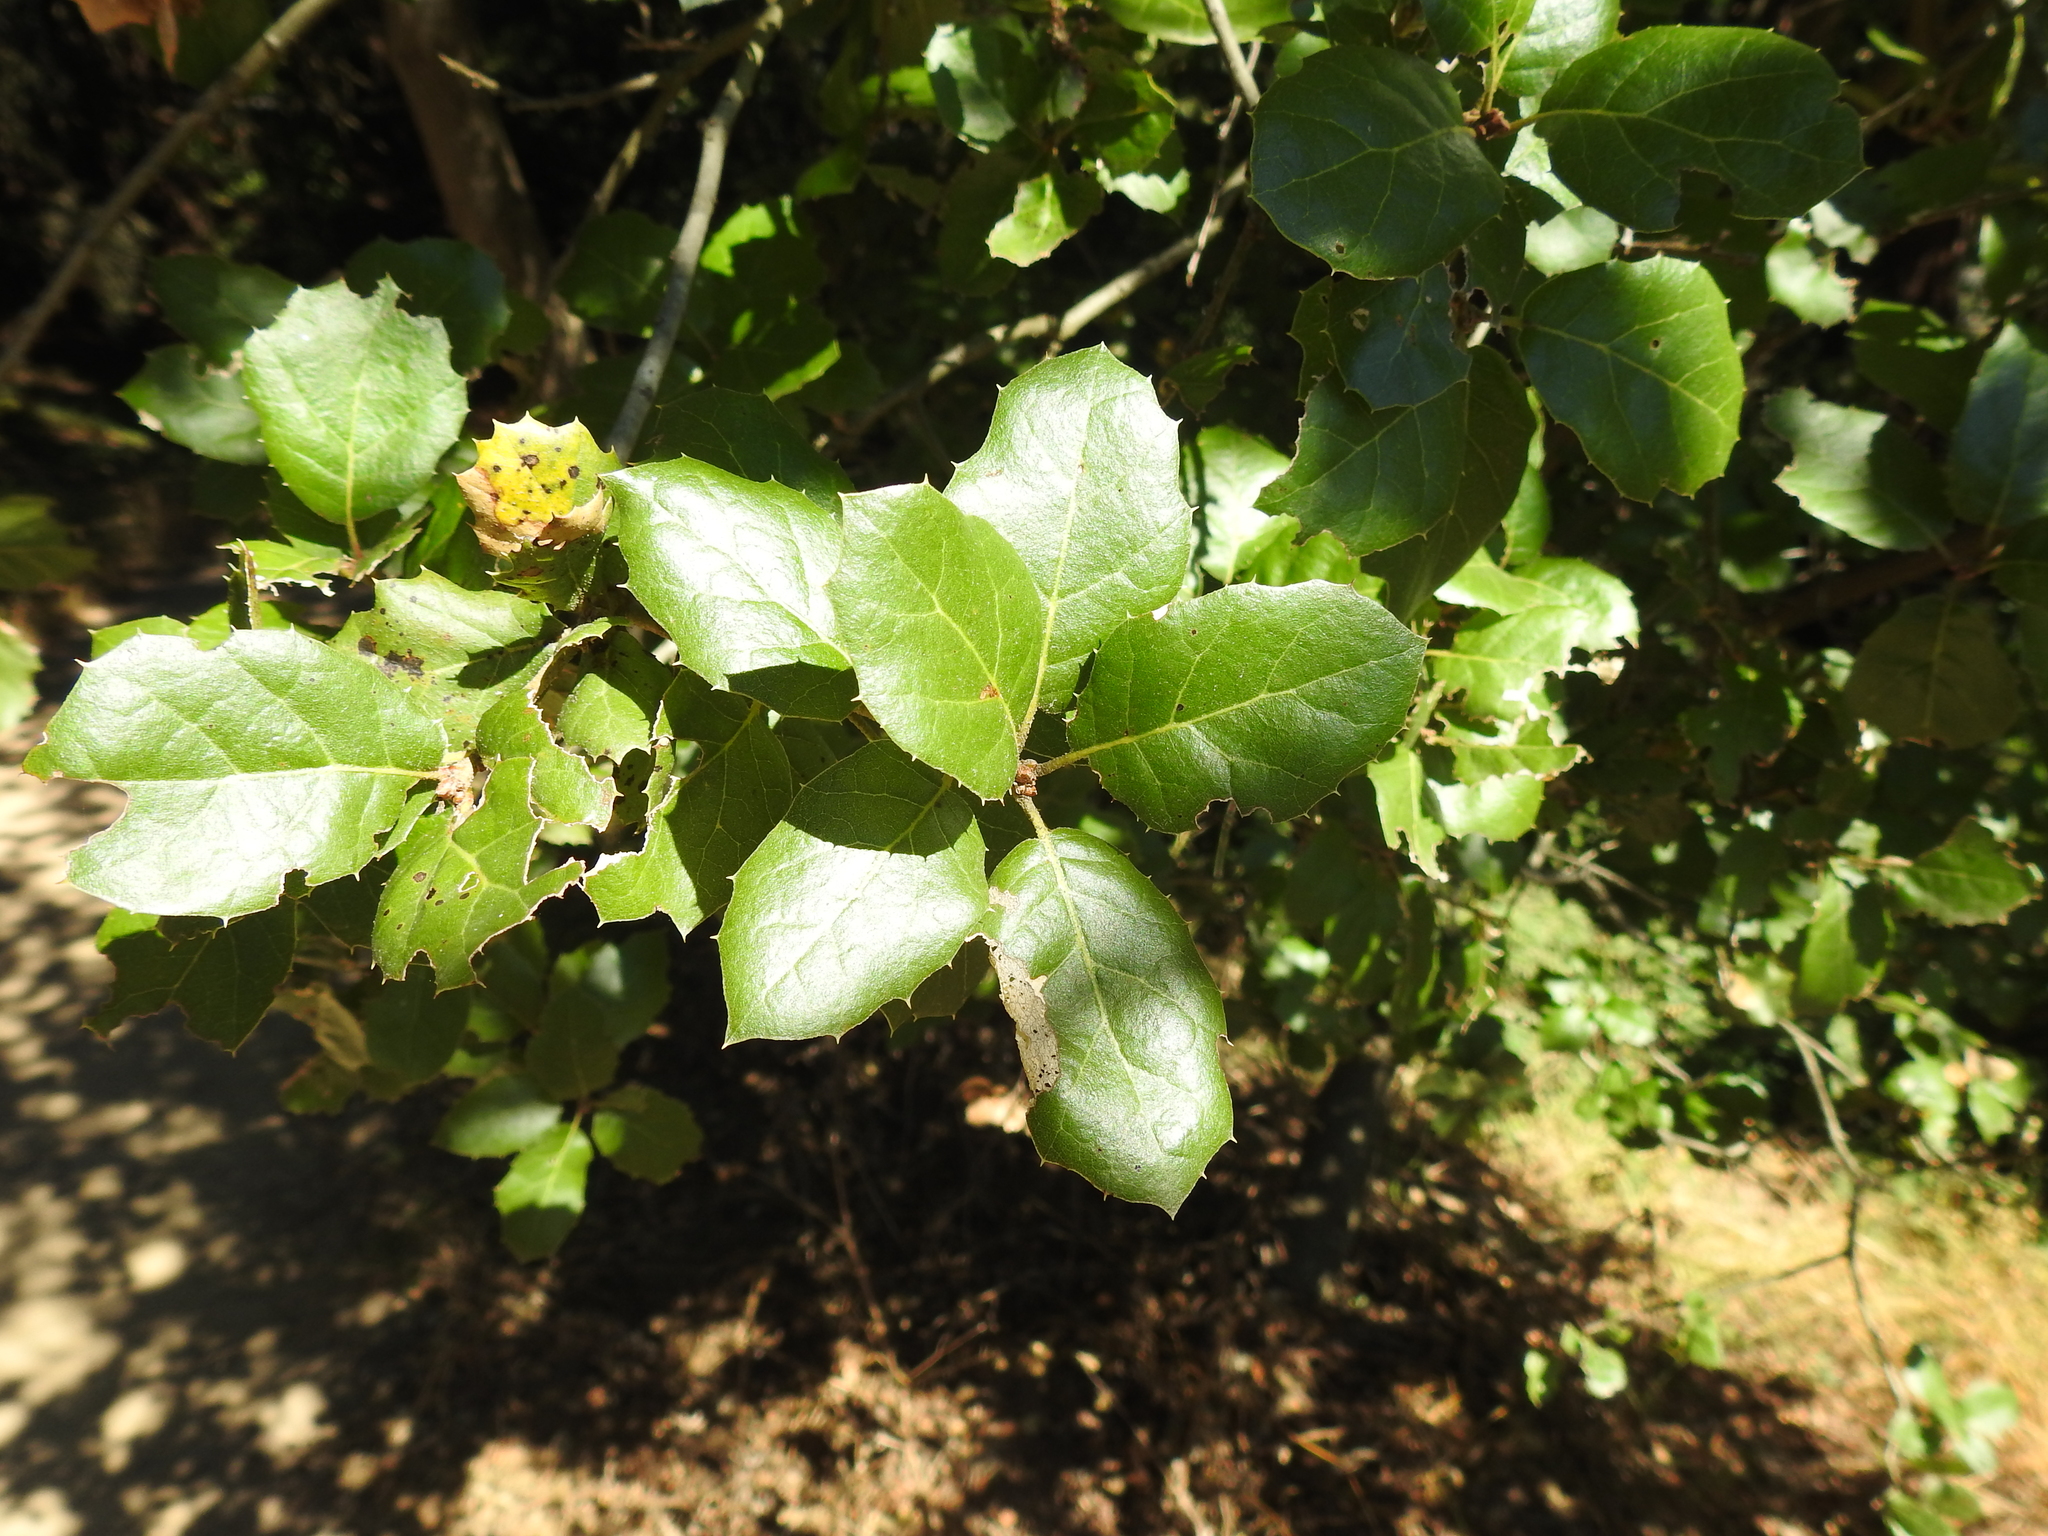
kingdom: Plantae
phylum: Tracheophyta
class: Magnoliopsida
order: Fagales
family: Fagaceae
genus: Quercus
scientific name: Quercus agrifolia
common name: California live oak
